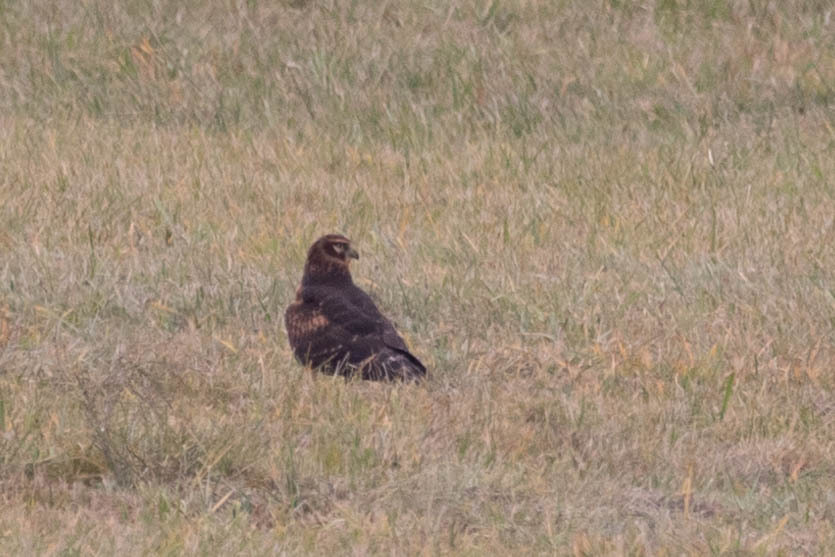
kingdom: Animalia
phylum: Chordata
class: Aves
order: Accipitriformes
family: Accipitridae
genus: Circus
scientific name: Circus cyaneus
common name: Hen harrier
